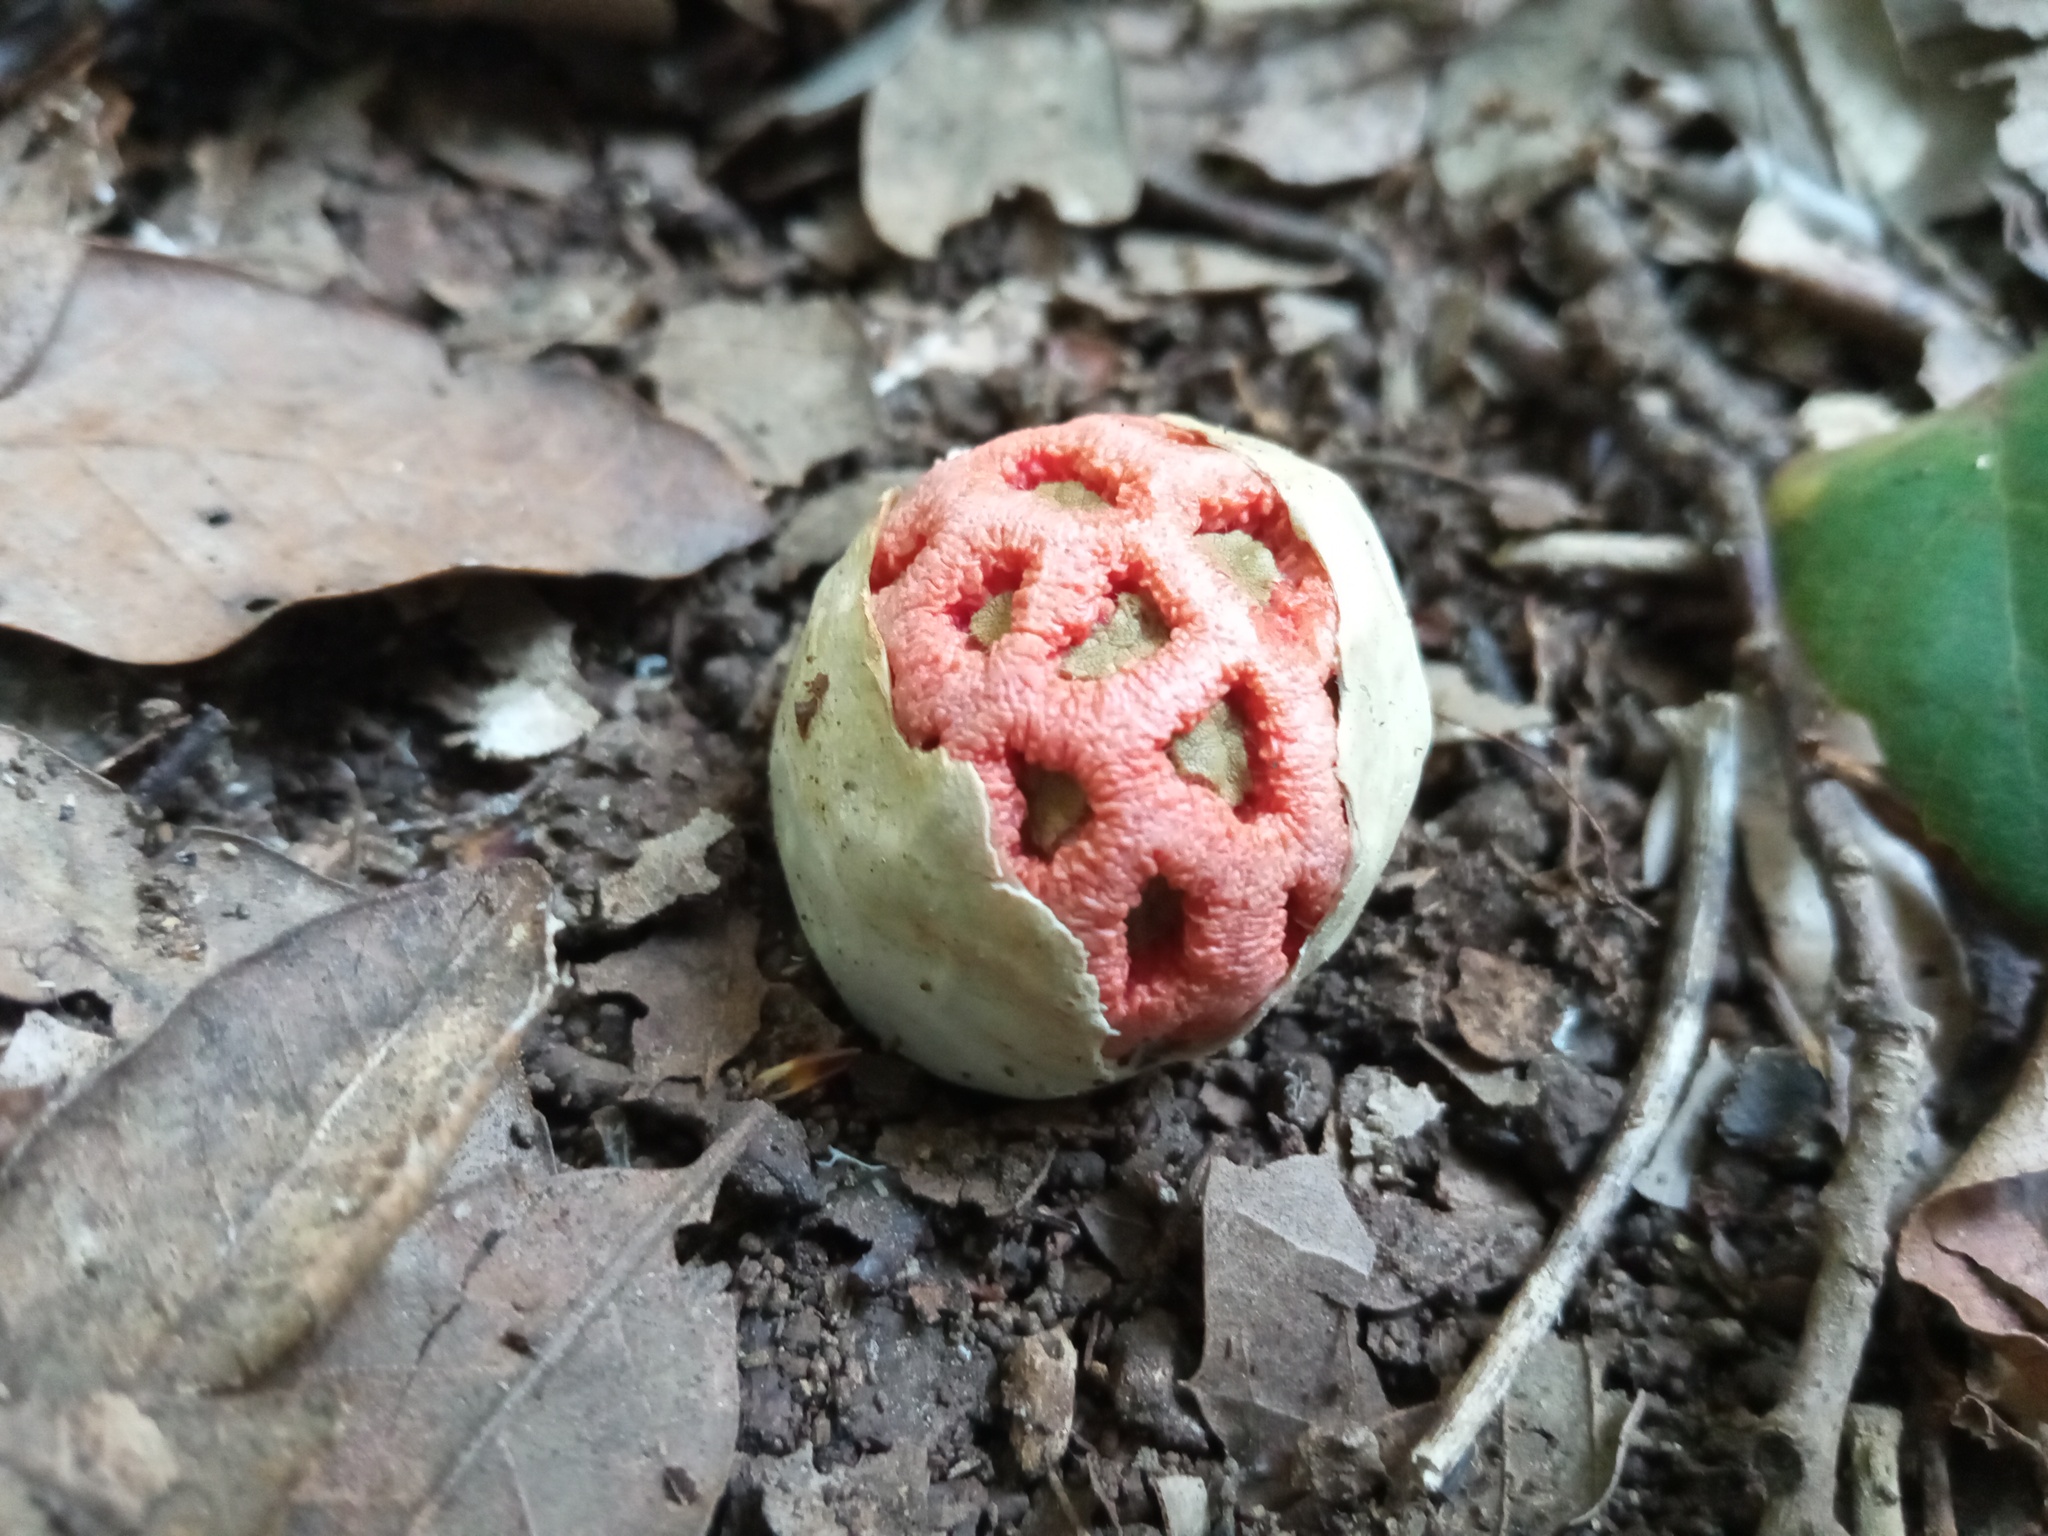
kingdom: Fungi
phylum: Basidiomycota
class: Agaricomycetes
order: Phallales
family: Phallaceae
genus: Clathrus
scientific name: Clathrus ruber
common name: Red cage
